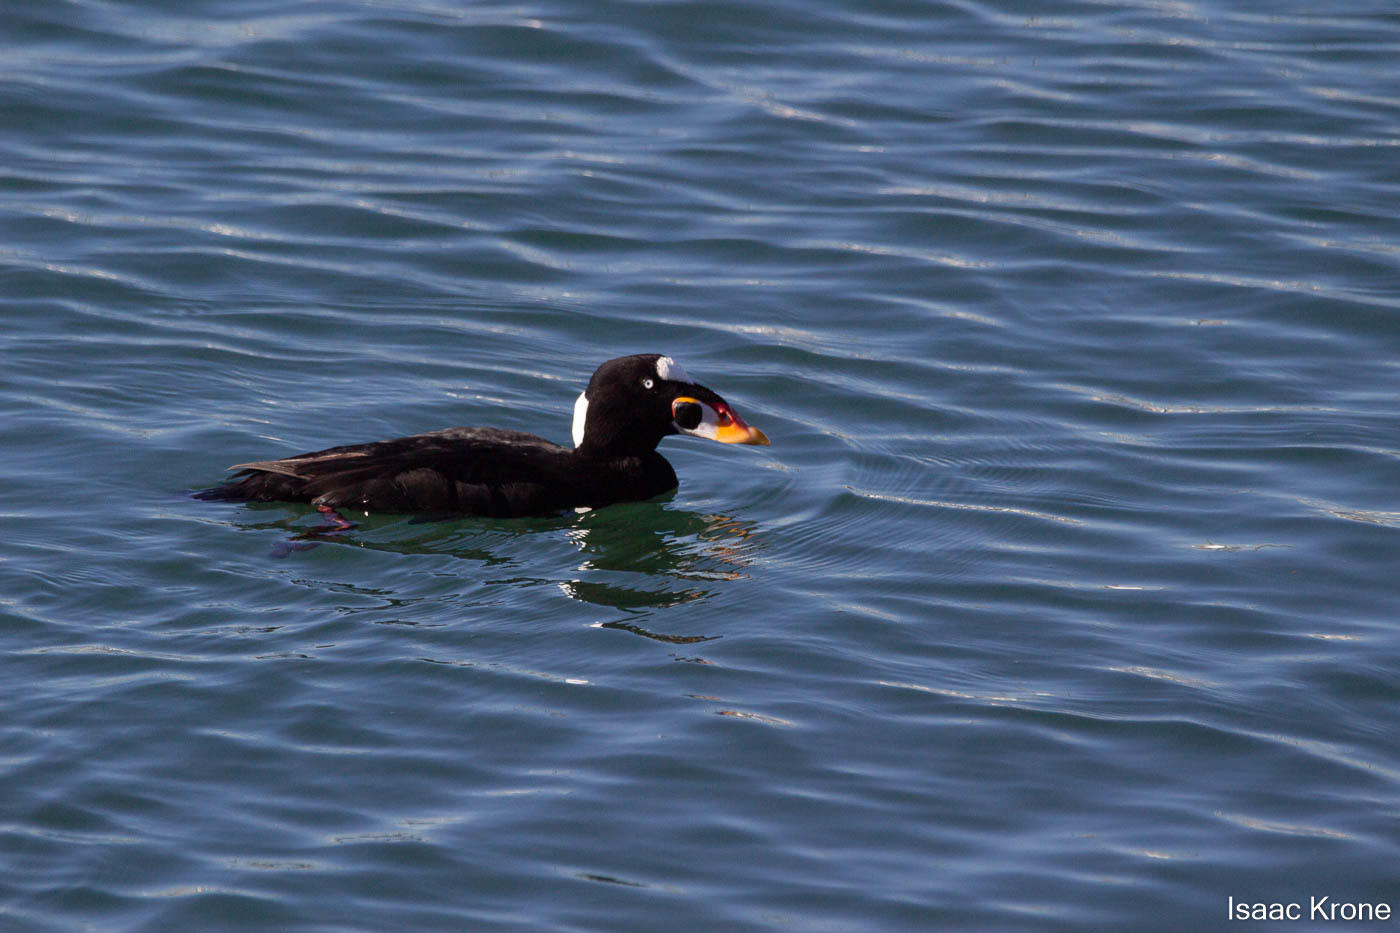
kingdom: Animalia
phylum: Chordata
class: Aves
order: Anseriformes
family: Anatidae
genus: Melanitta
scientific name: Melanitta perspicillata
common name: Surf scoter
